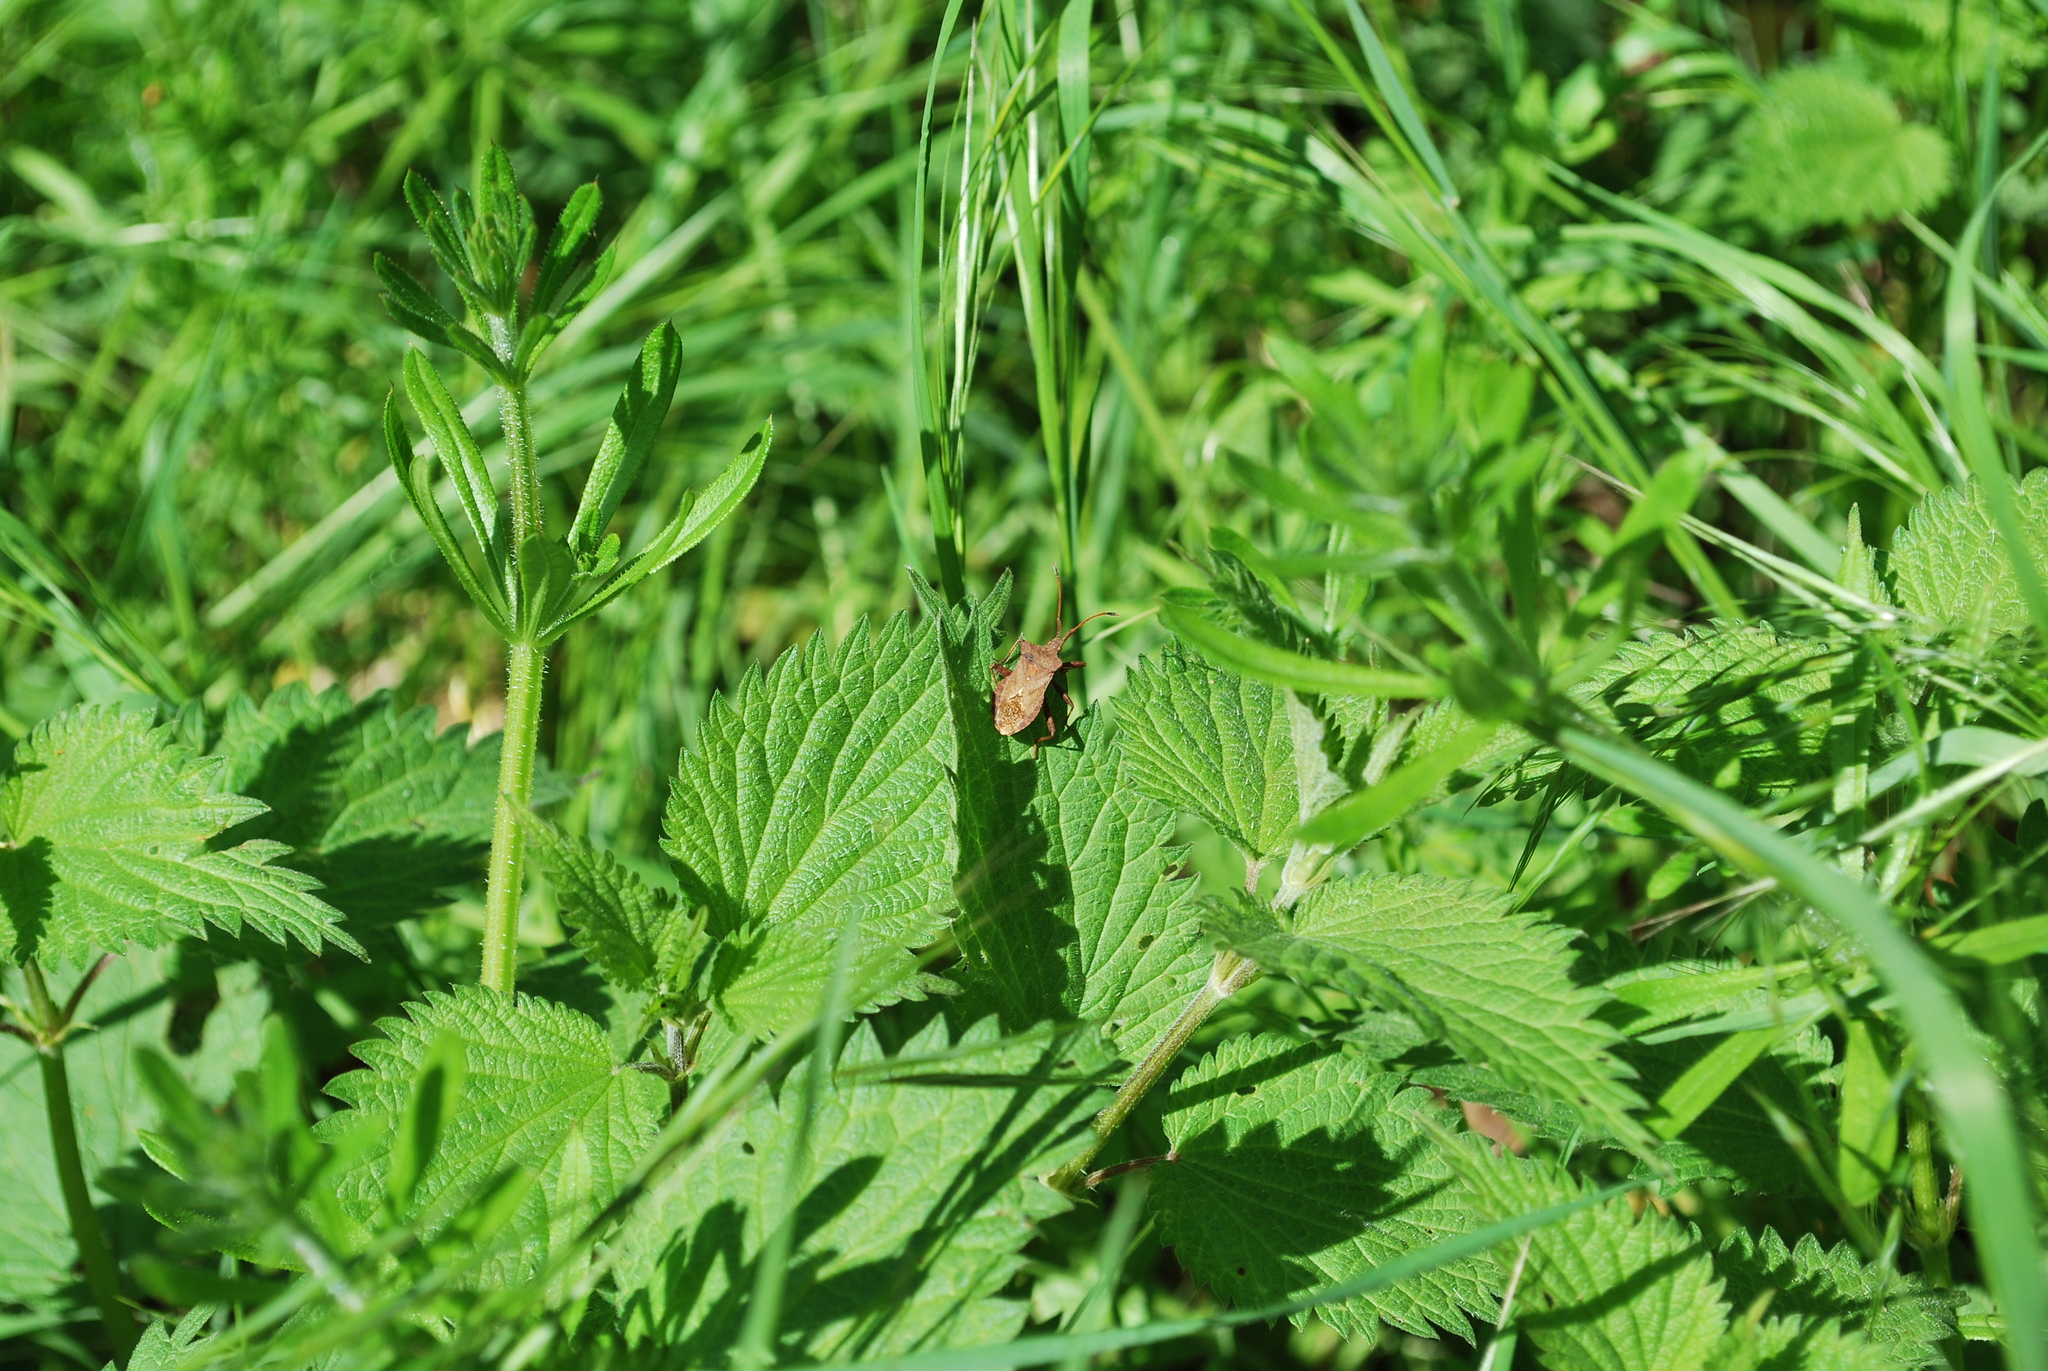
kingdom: Animalia
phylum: Arthropoda
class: Insecta
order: Hemiptera
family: Coreidae
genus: Coreus
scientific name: Coreus marginatus
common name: Dock bug
